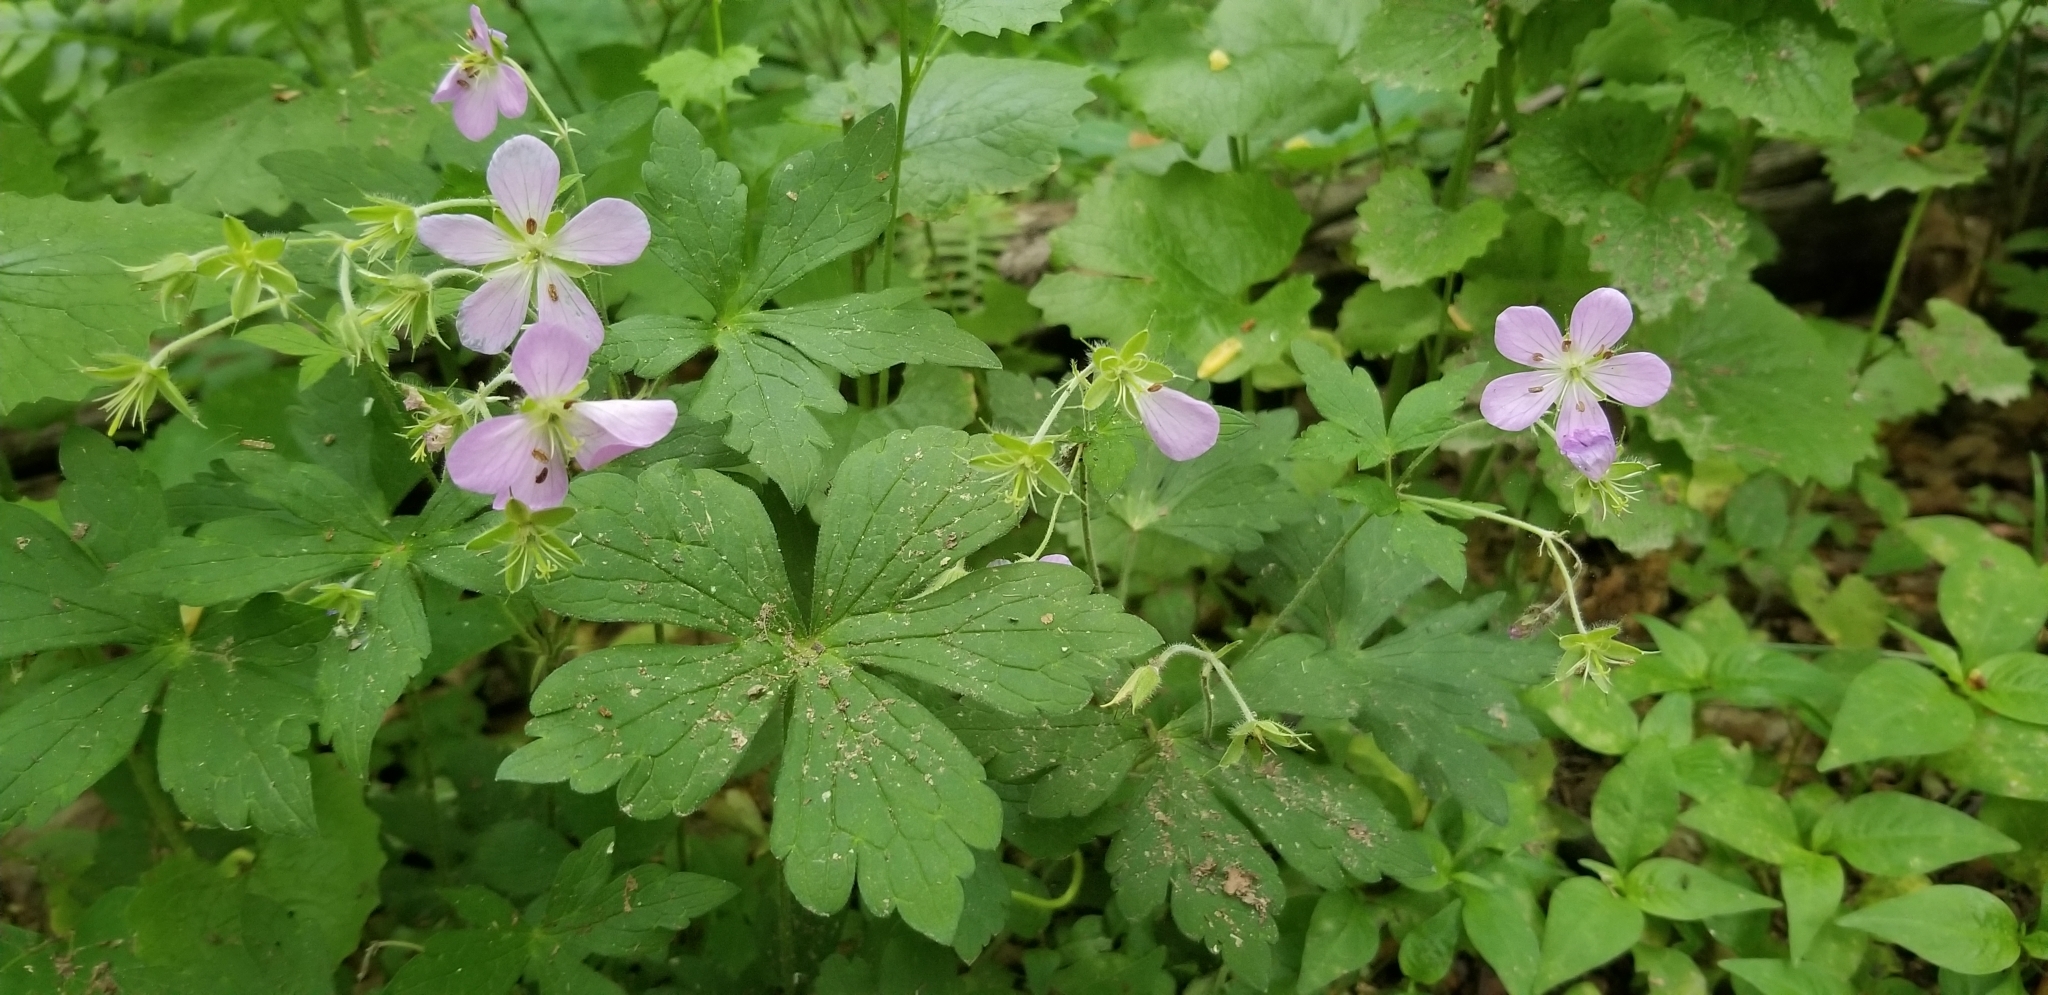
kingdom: Plantae
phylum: Tracheophyta
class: Magnoliopsida
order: Geraniales
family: Geraniaceae
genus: Geranium
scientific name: Geranium maculatum
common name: Spotted geranium
